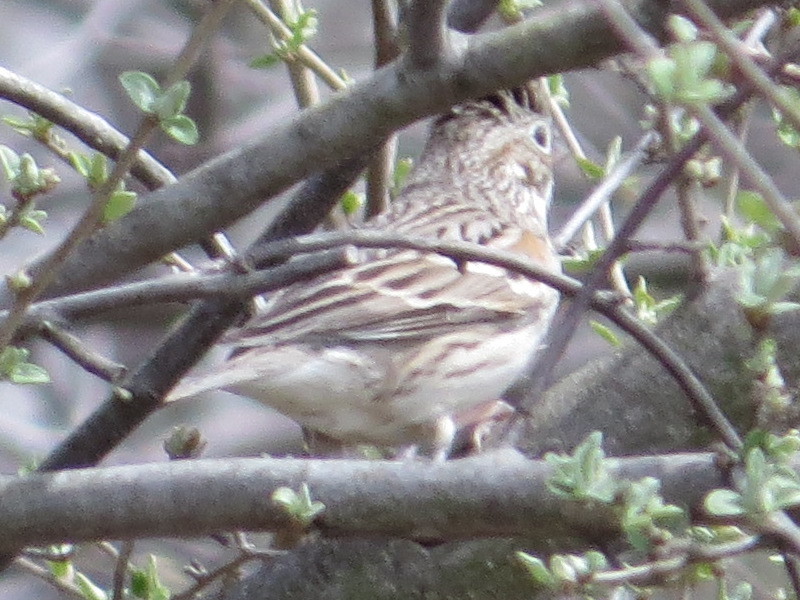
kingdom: Animalia
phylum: Chordata
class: Aves
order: Passeriformes
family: Passerellidae
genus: Pooecetes
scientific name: Pooecetes gramineus
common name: Vesper sparrow
